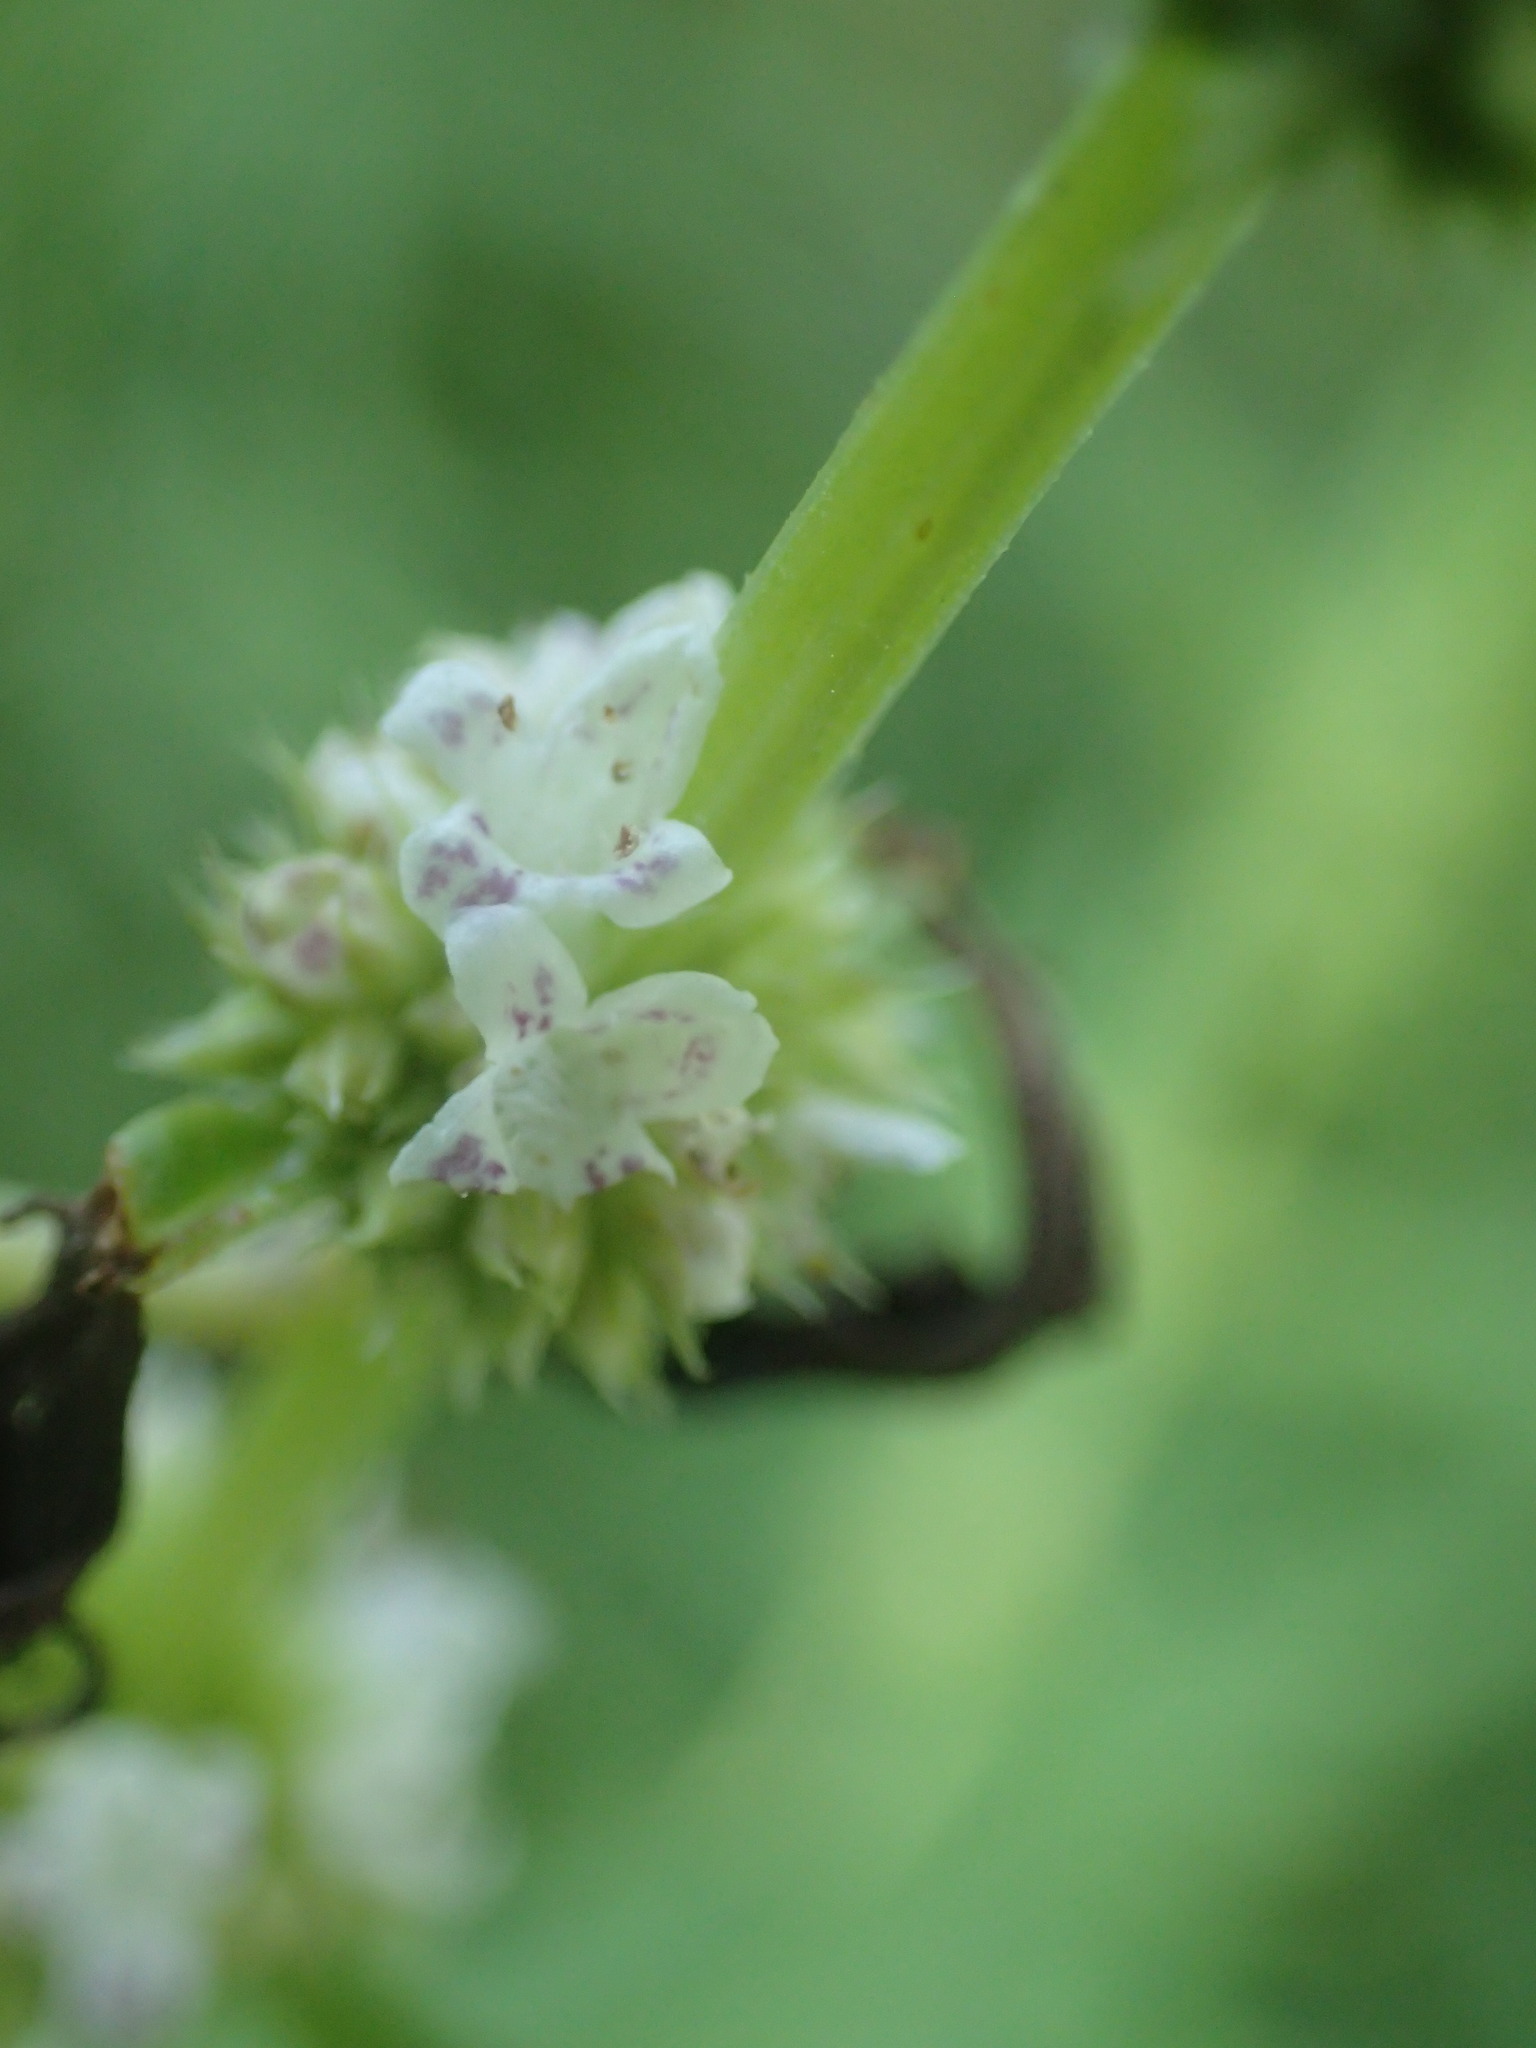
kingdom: Plantae
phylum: Tracheophyta
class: Magnoliopsida
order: Lamiales
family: Lamiaceae
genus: Lycopus
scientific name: Lycopus americanus
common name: American bugleweed
